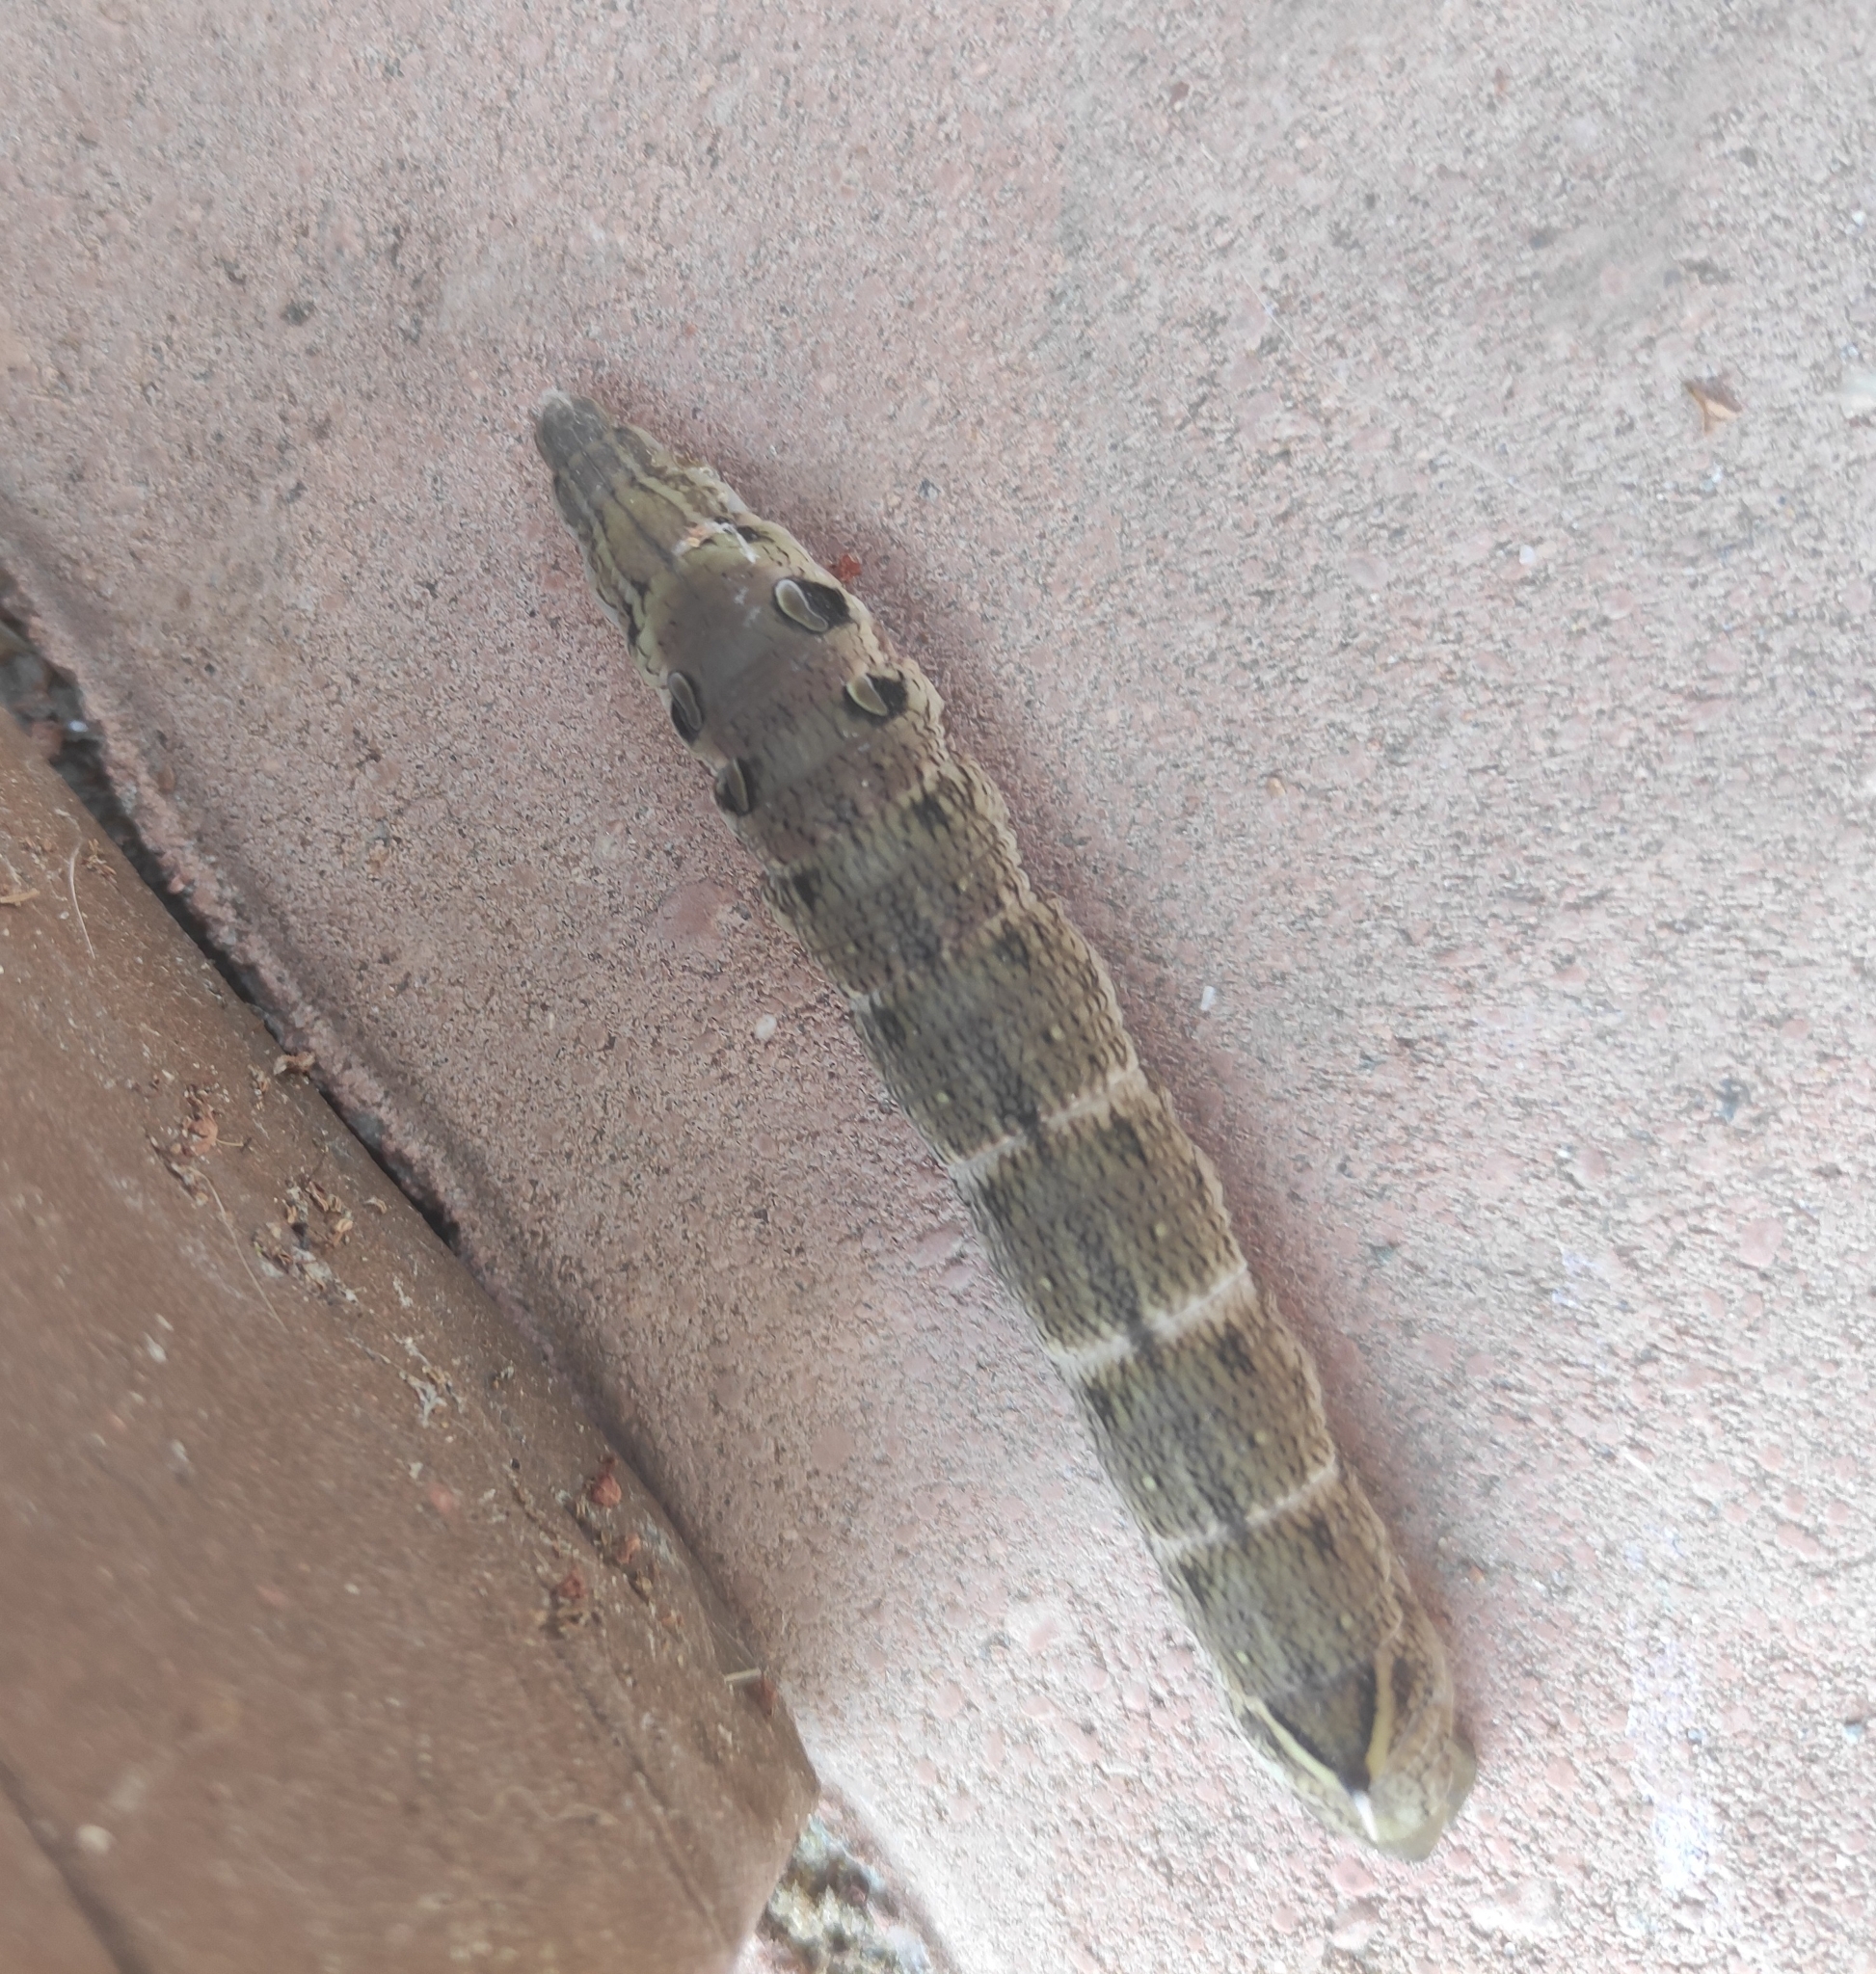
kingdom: Animalia
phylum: Arthropoda
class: Insecta
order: Lepidoptera
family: Sphingidae
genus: Deilephila
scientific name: Deilephila elpenor
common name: Elephant hawk-moth
